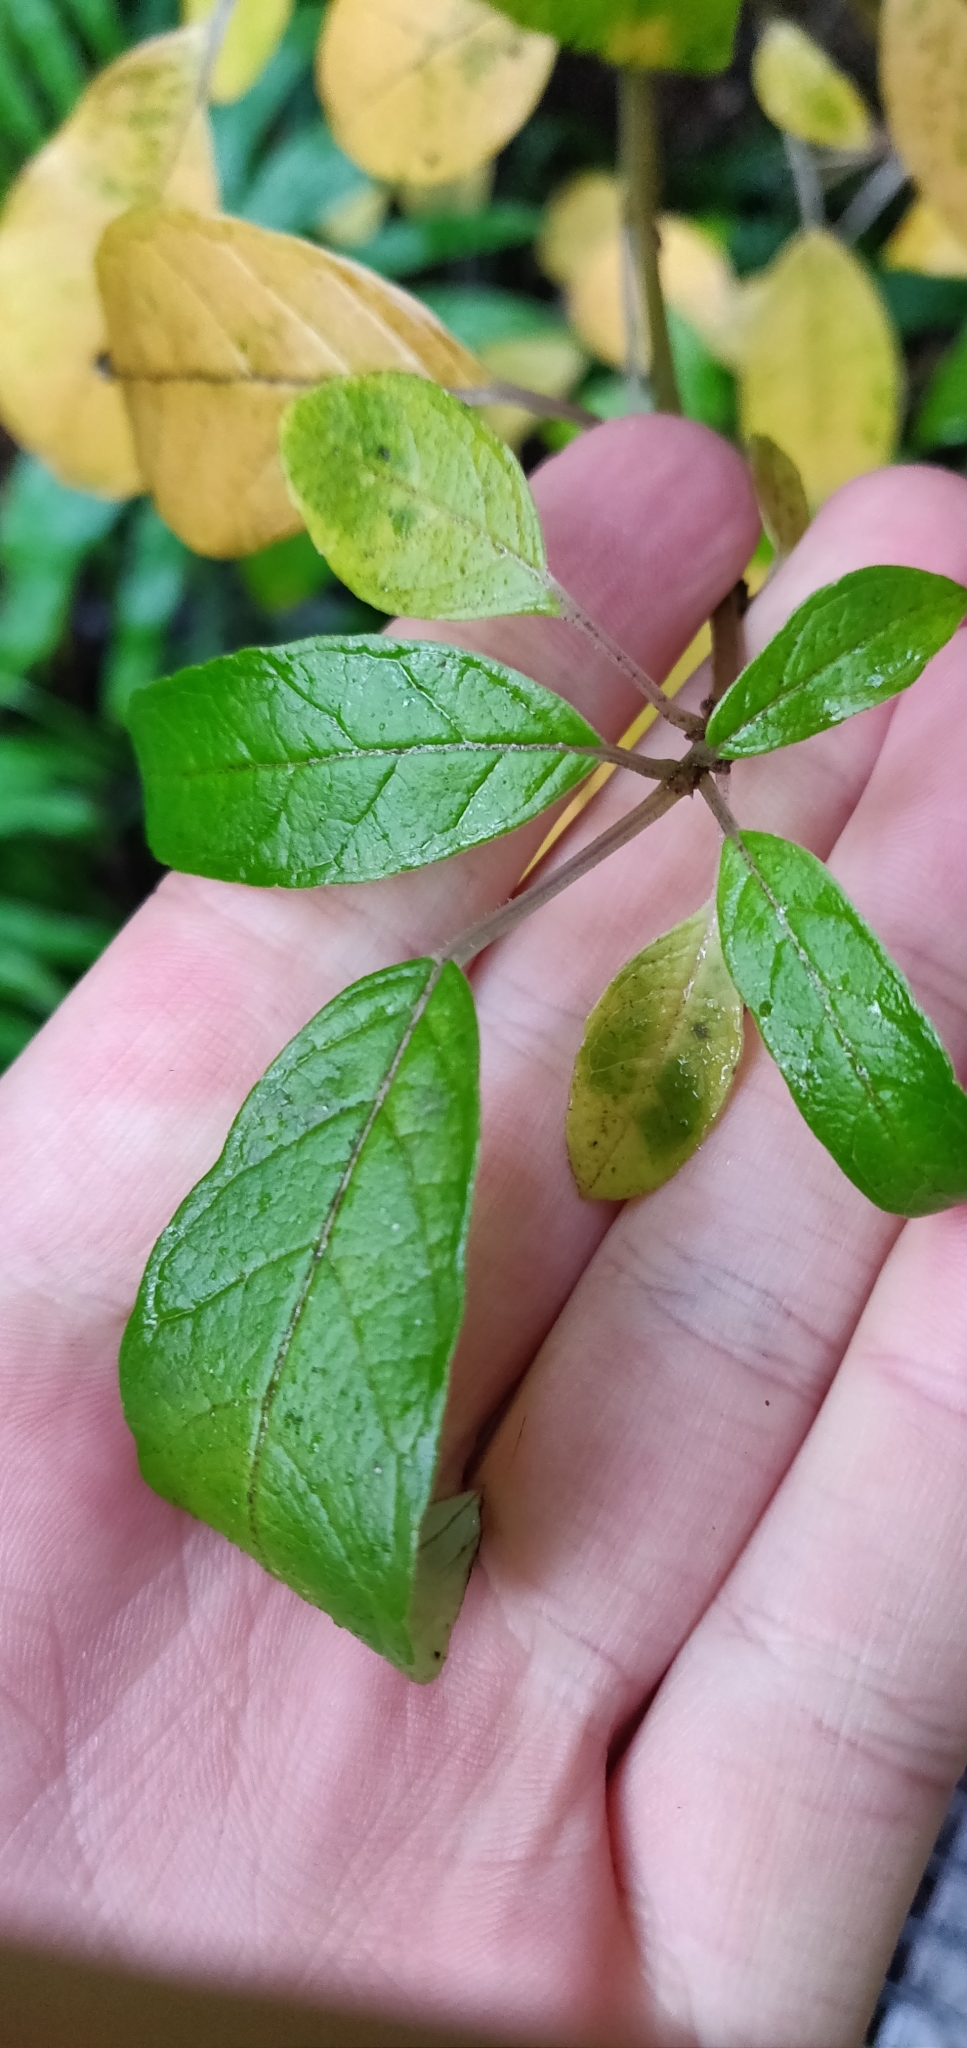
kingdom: Plantae
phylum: Tracheophyta
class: Magnoliopsida
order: Myrtales
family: Onagraceae
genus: Fuchsia
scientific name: Fuchsia excorticata
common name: Tree fuchsia
